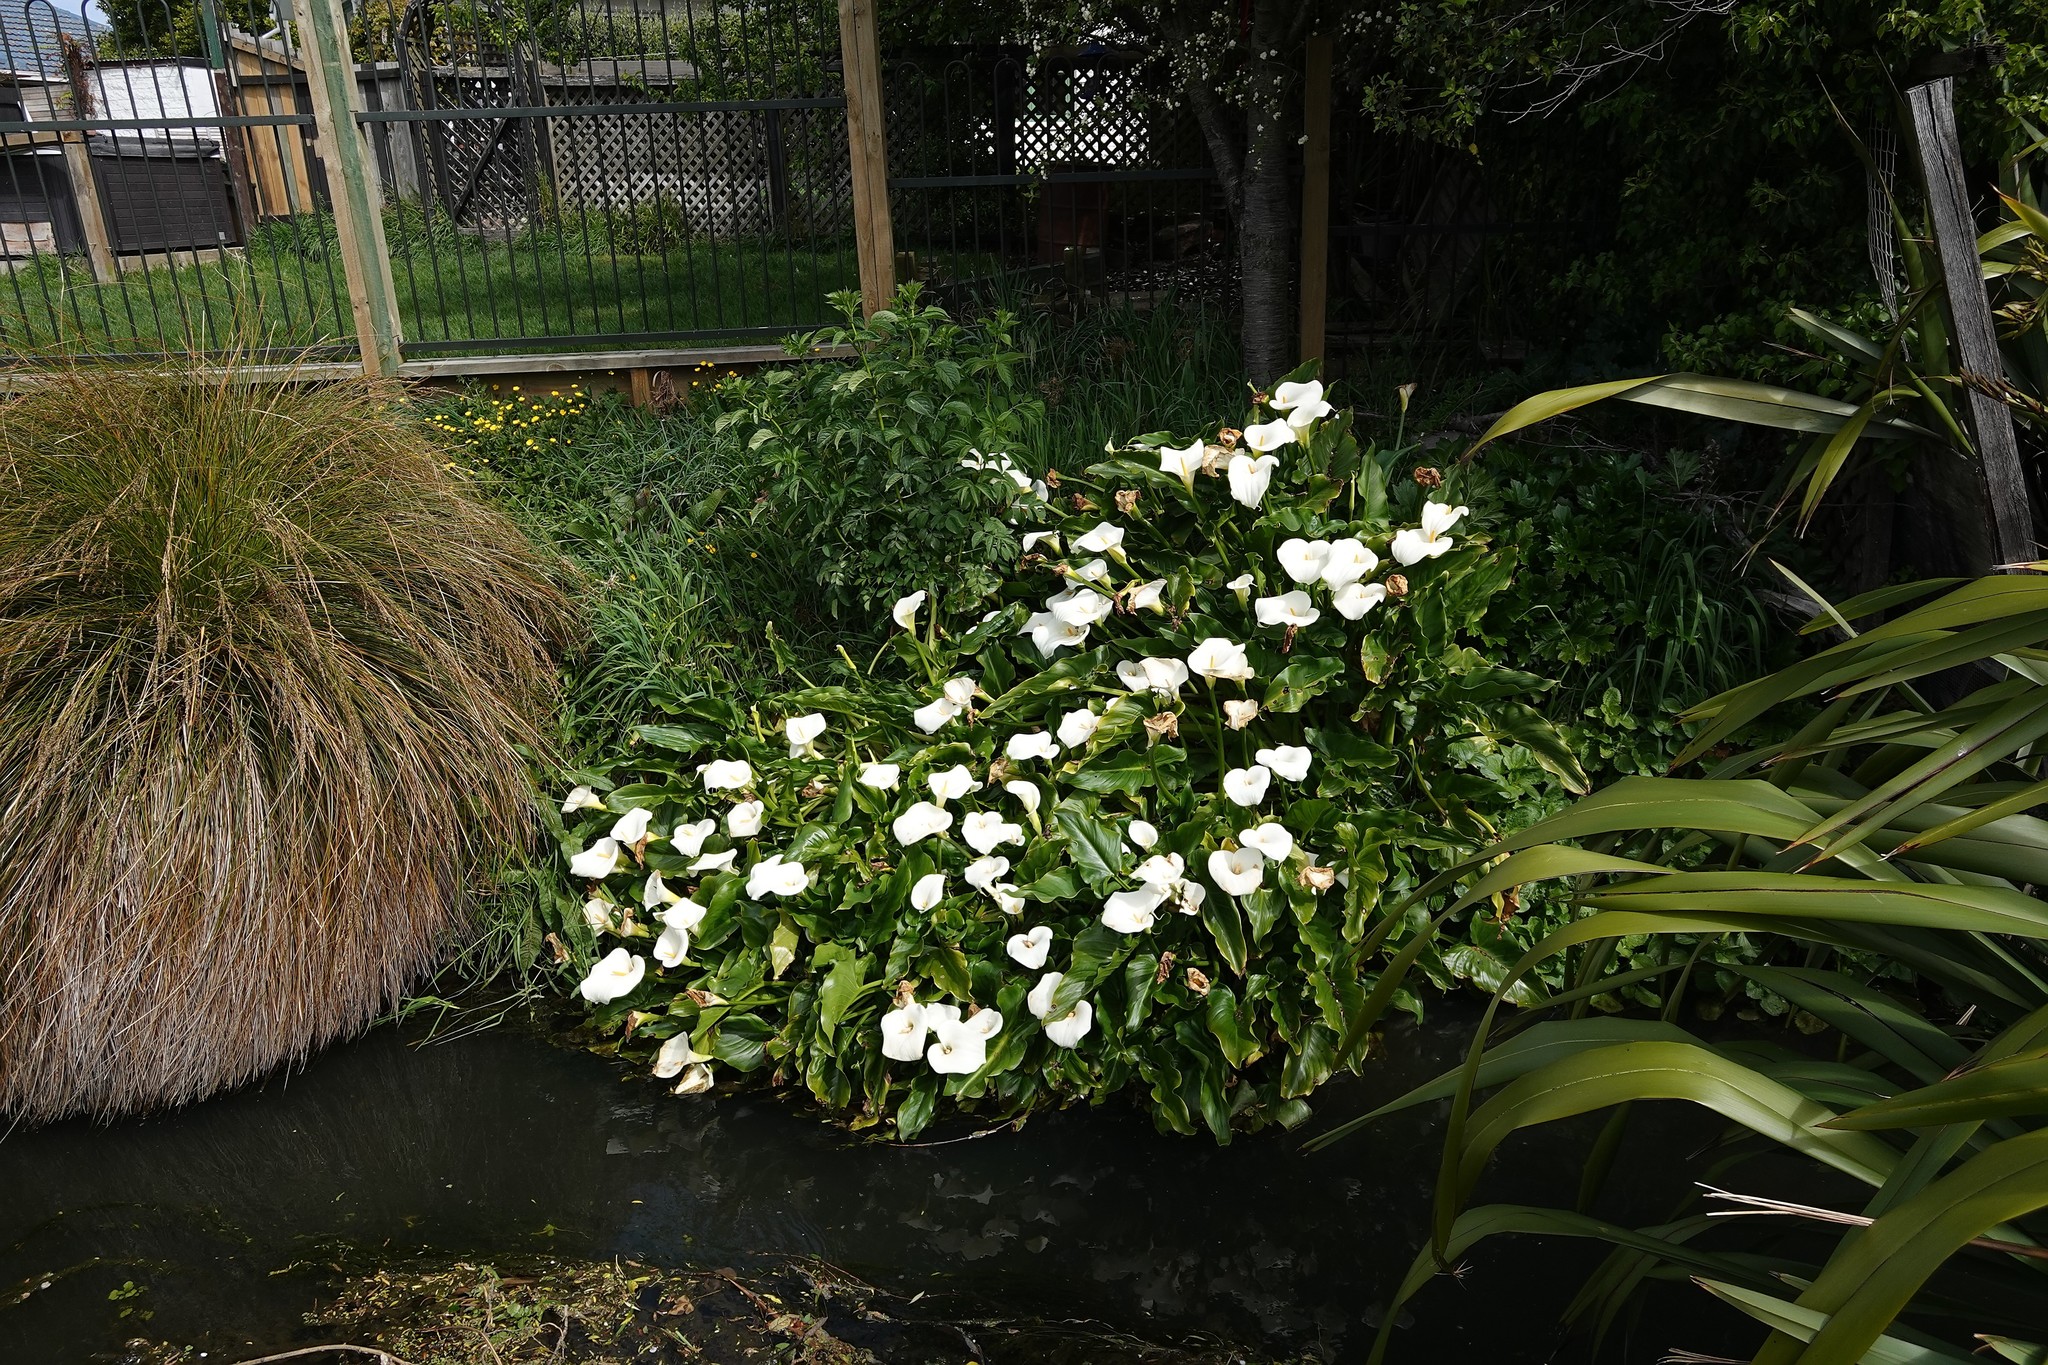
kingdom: Plantae
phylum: Tracheophyta
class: Liliopsida
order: Alismatales
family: Araceae
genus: Zantedeschia
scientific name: Zantedeschia aethiopica
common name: Altar-lily
